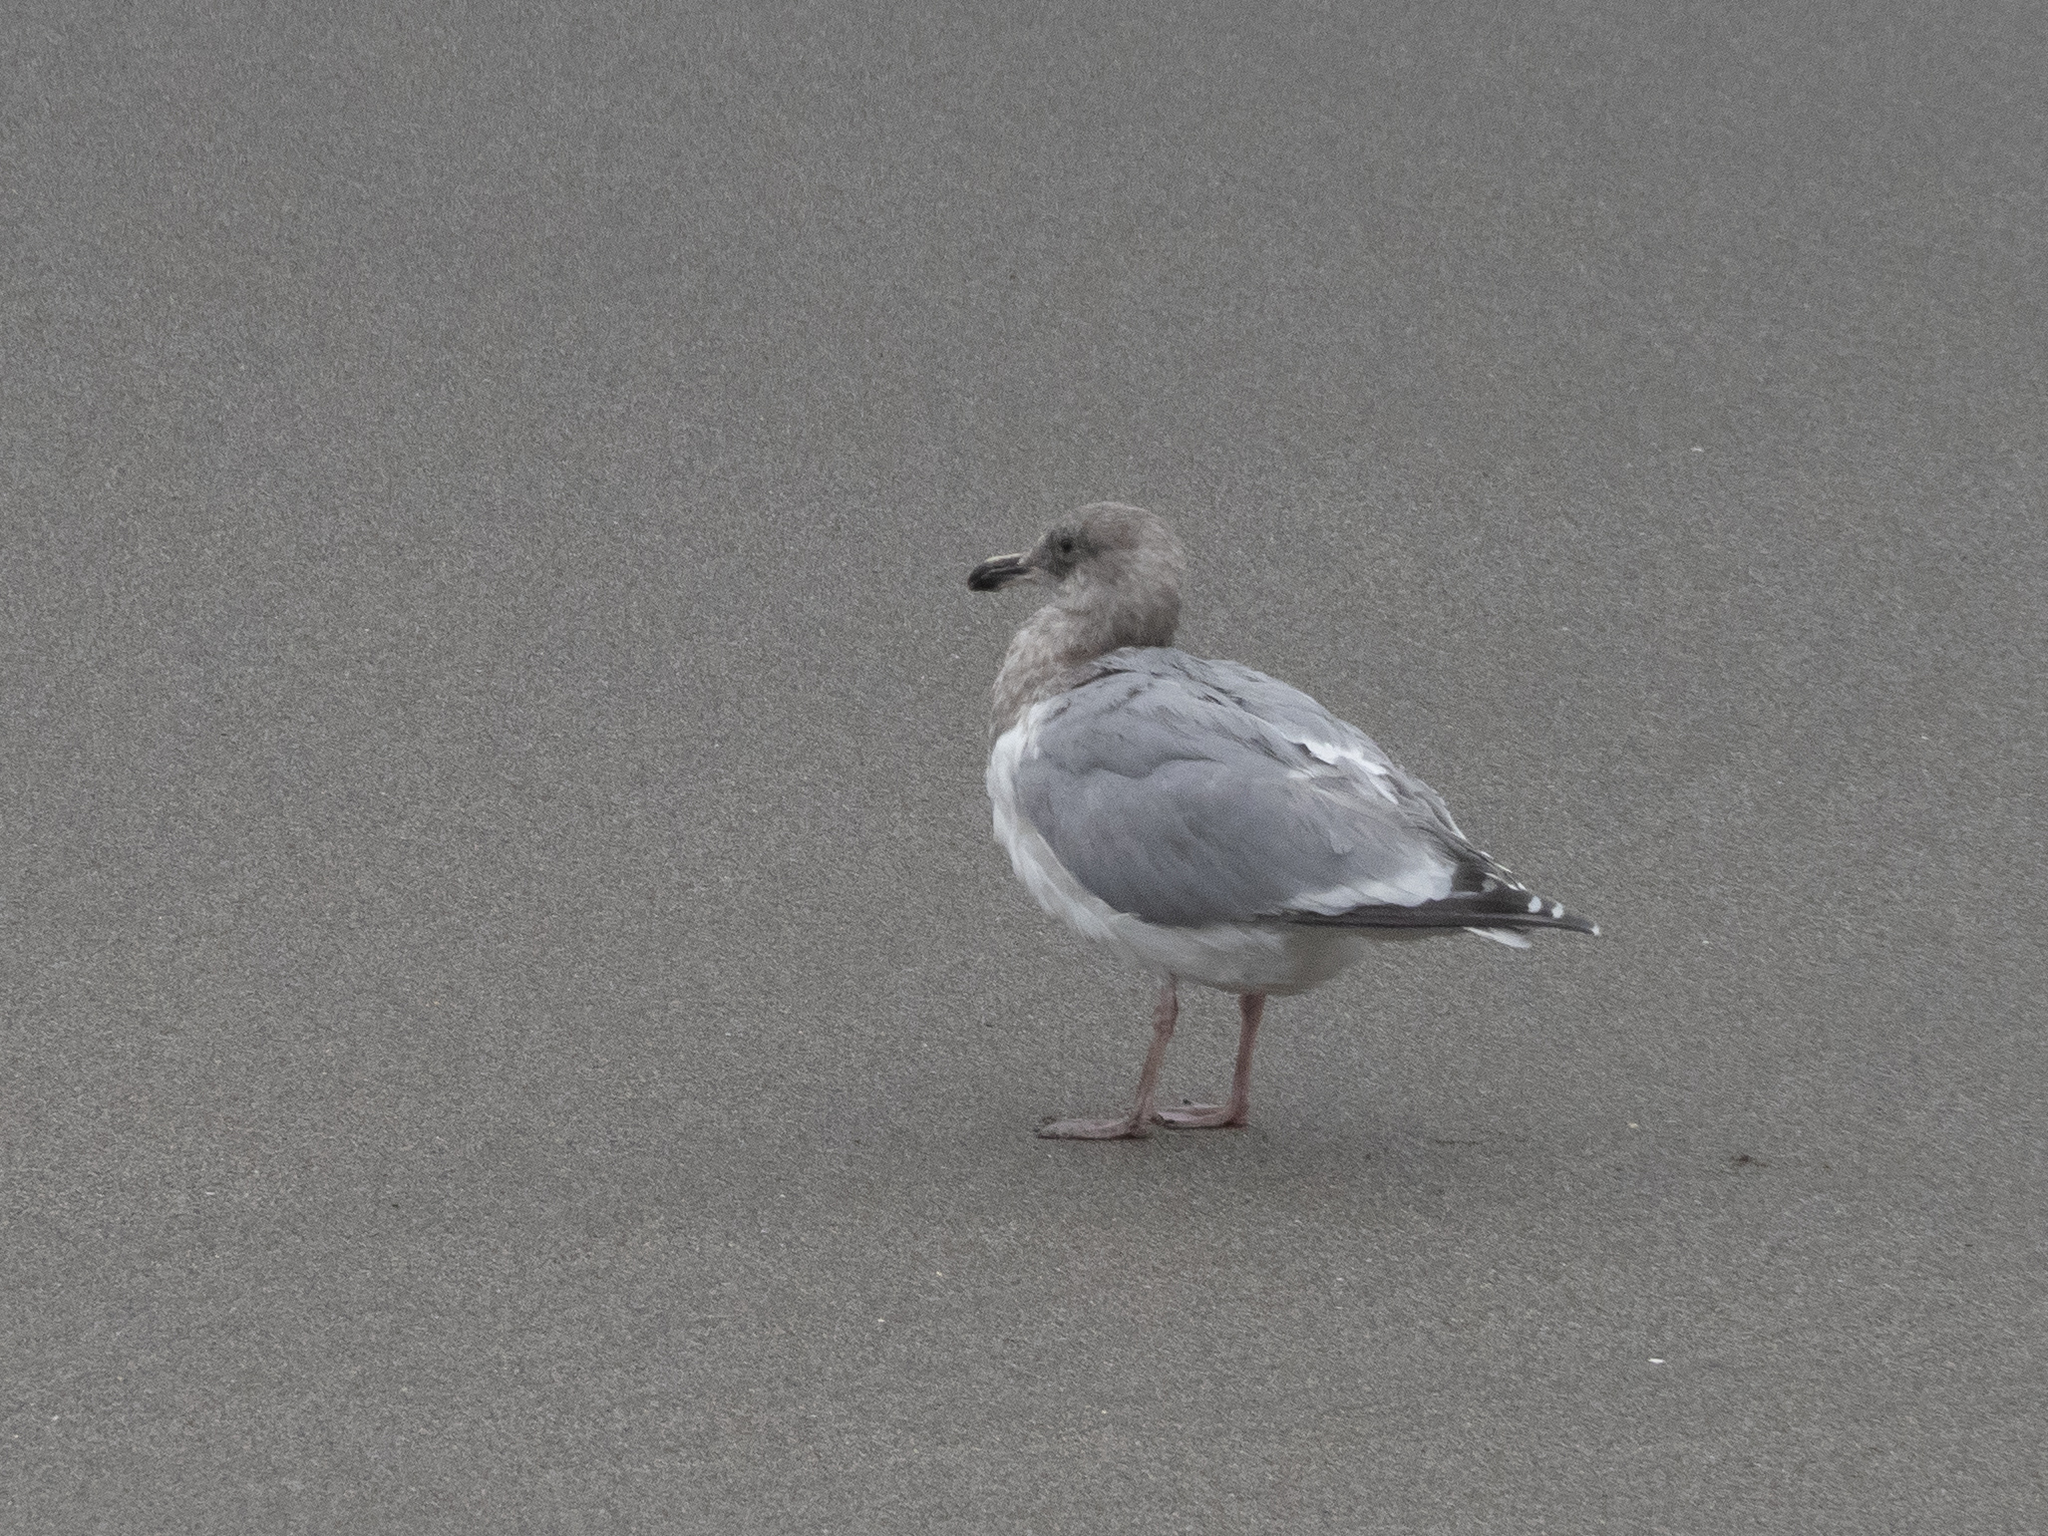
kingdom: Animalia
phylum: Chordata
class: Aves
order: Charadriiformes
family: Laridae
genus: Larus
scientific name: Larus
